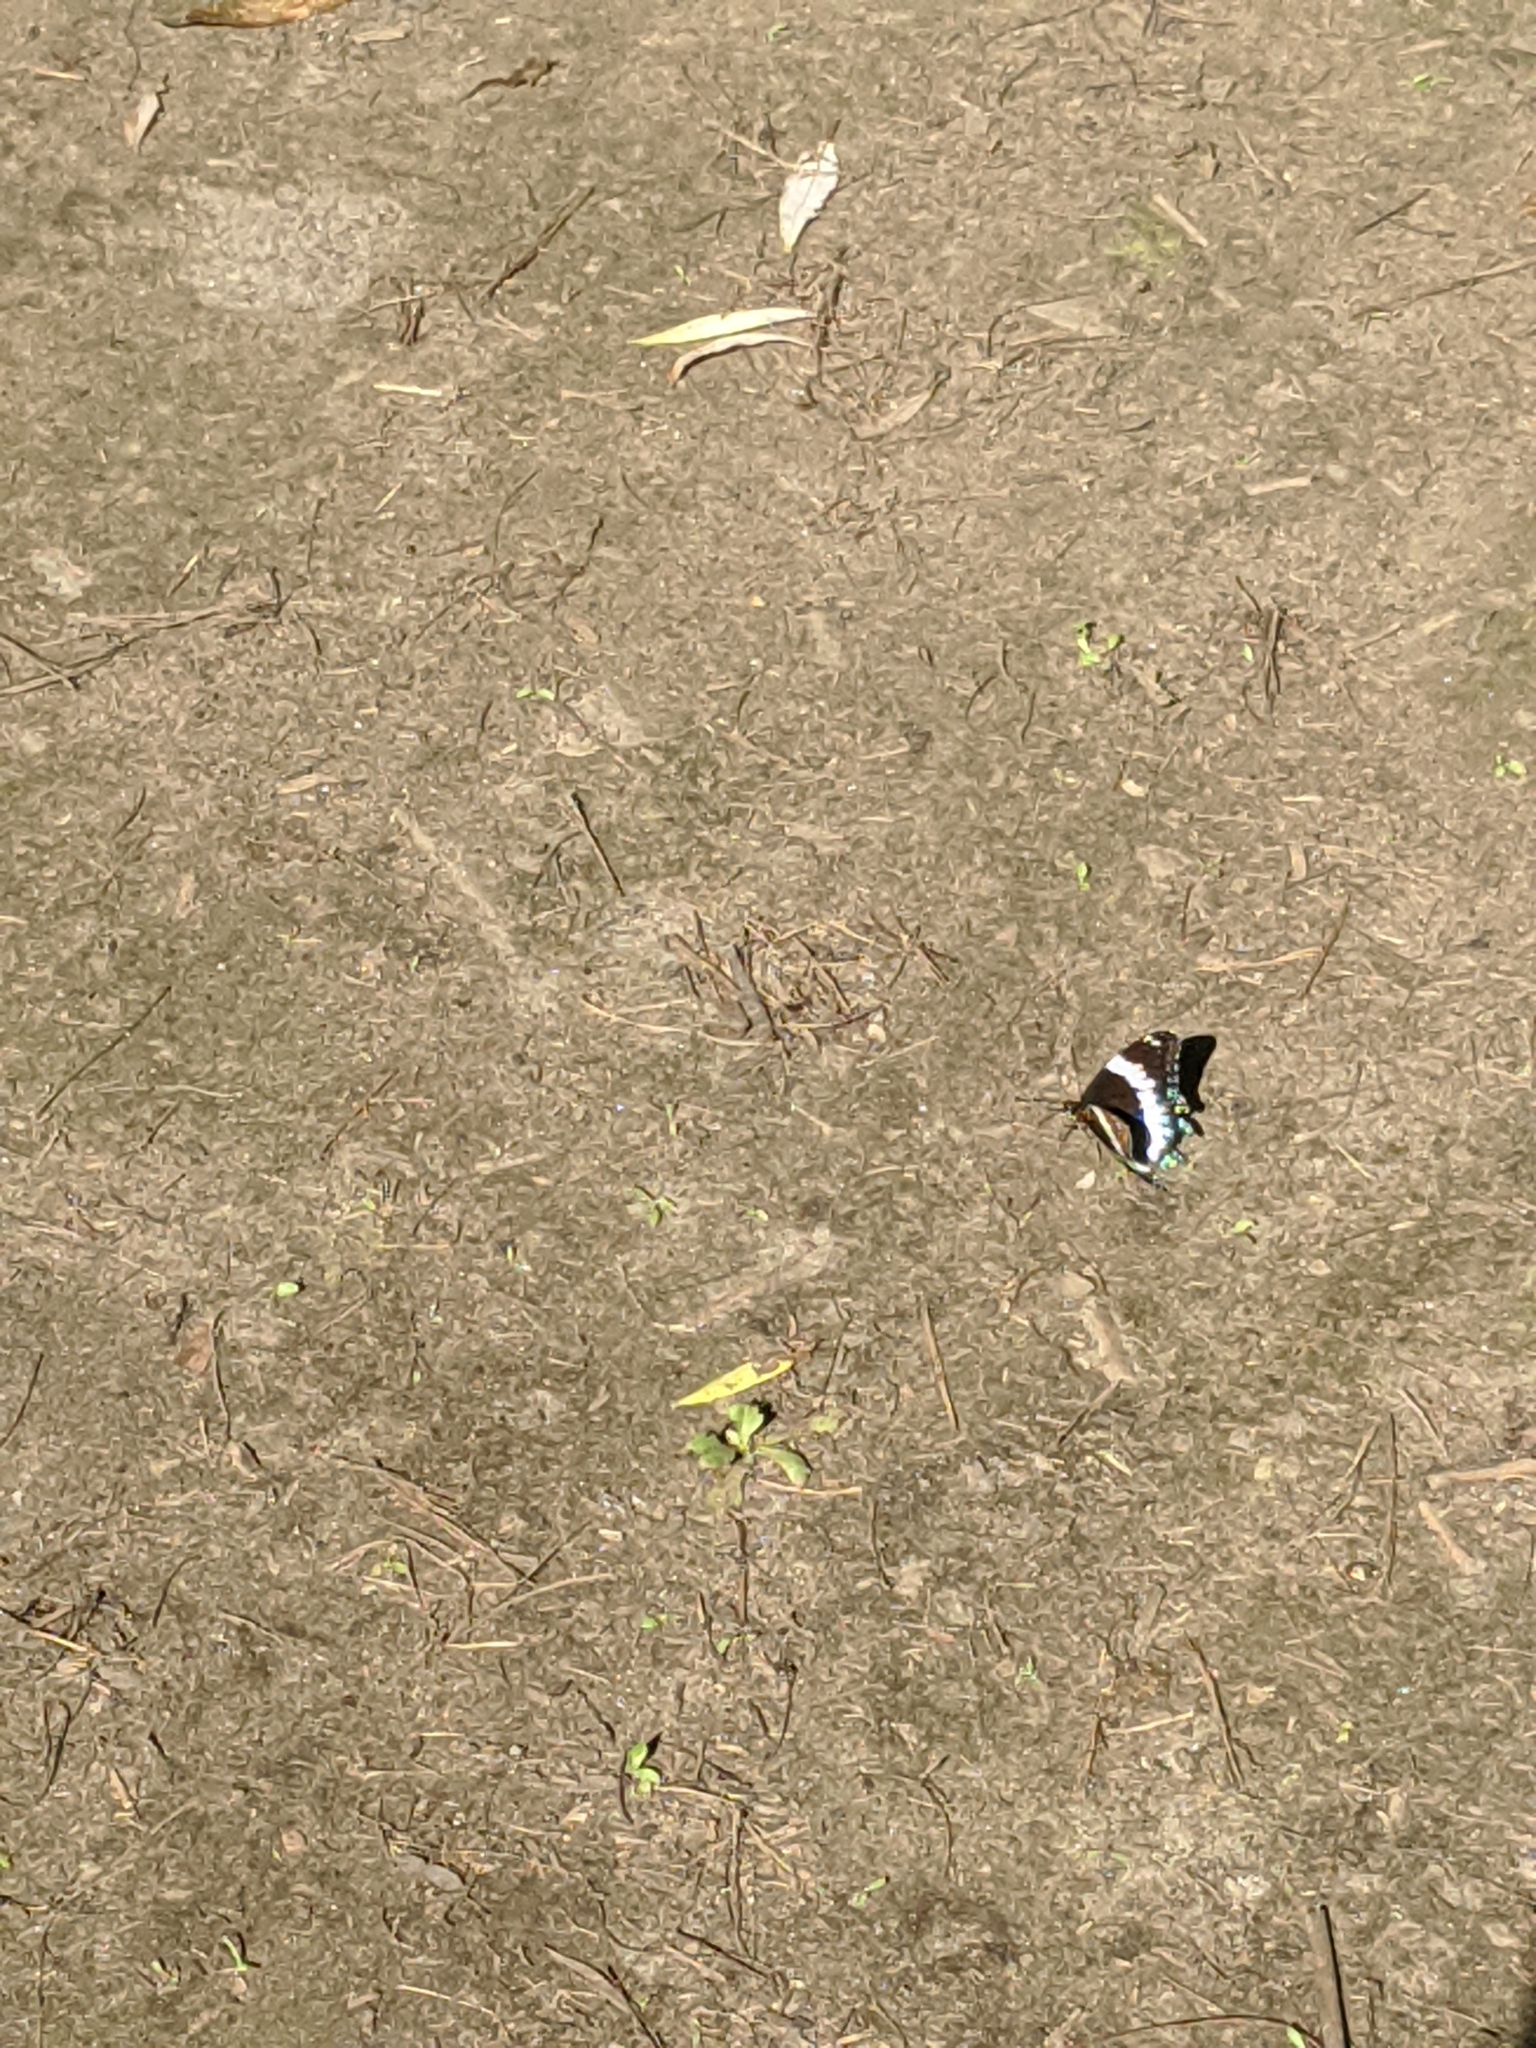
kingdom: Animalia
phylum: Arthropoda
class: Insecta
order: Lepidoptera
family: Nymphalidae
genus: Limenitis
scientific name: Limenitis arthemis
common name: Red-spotted admiral
